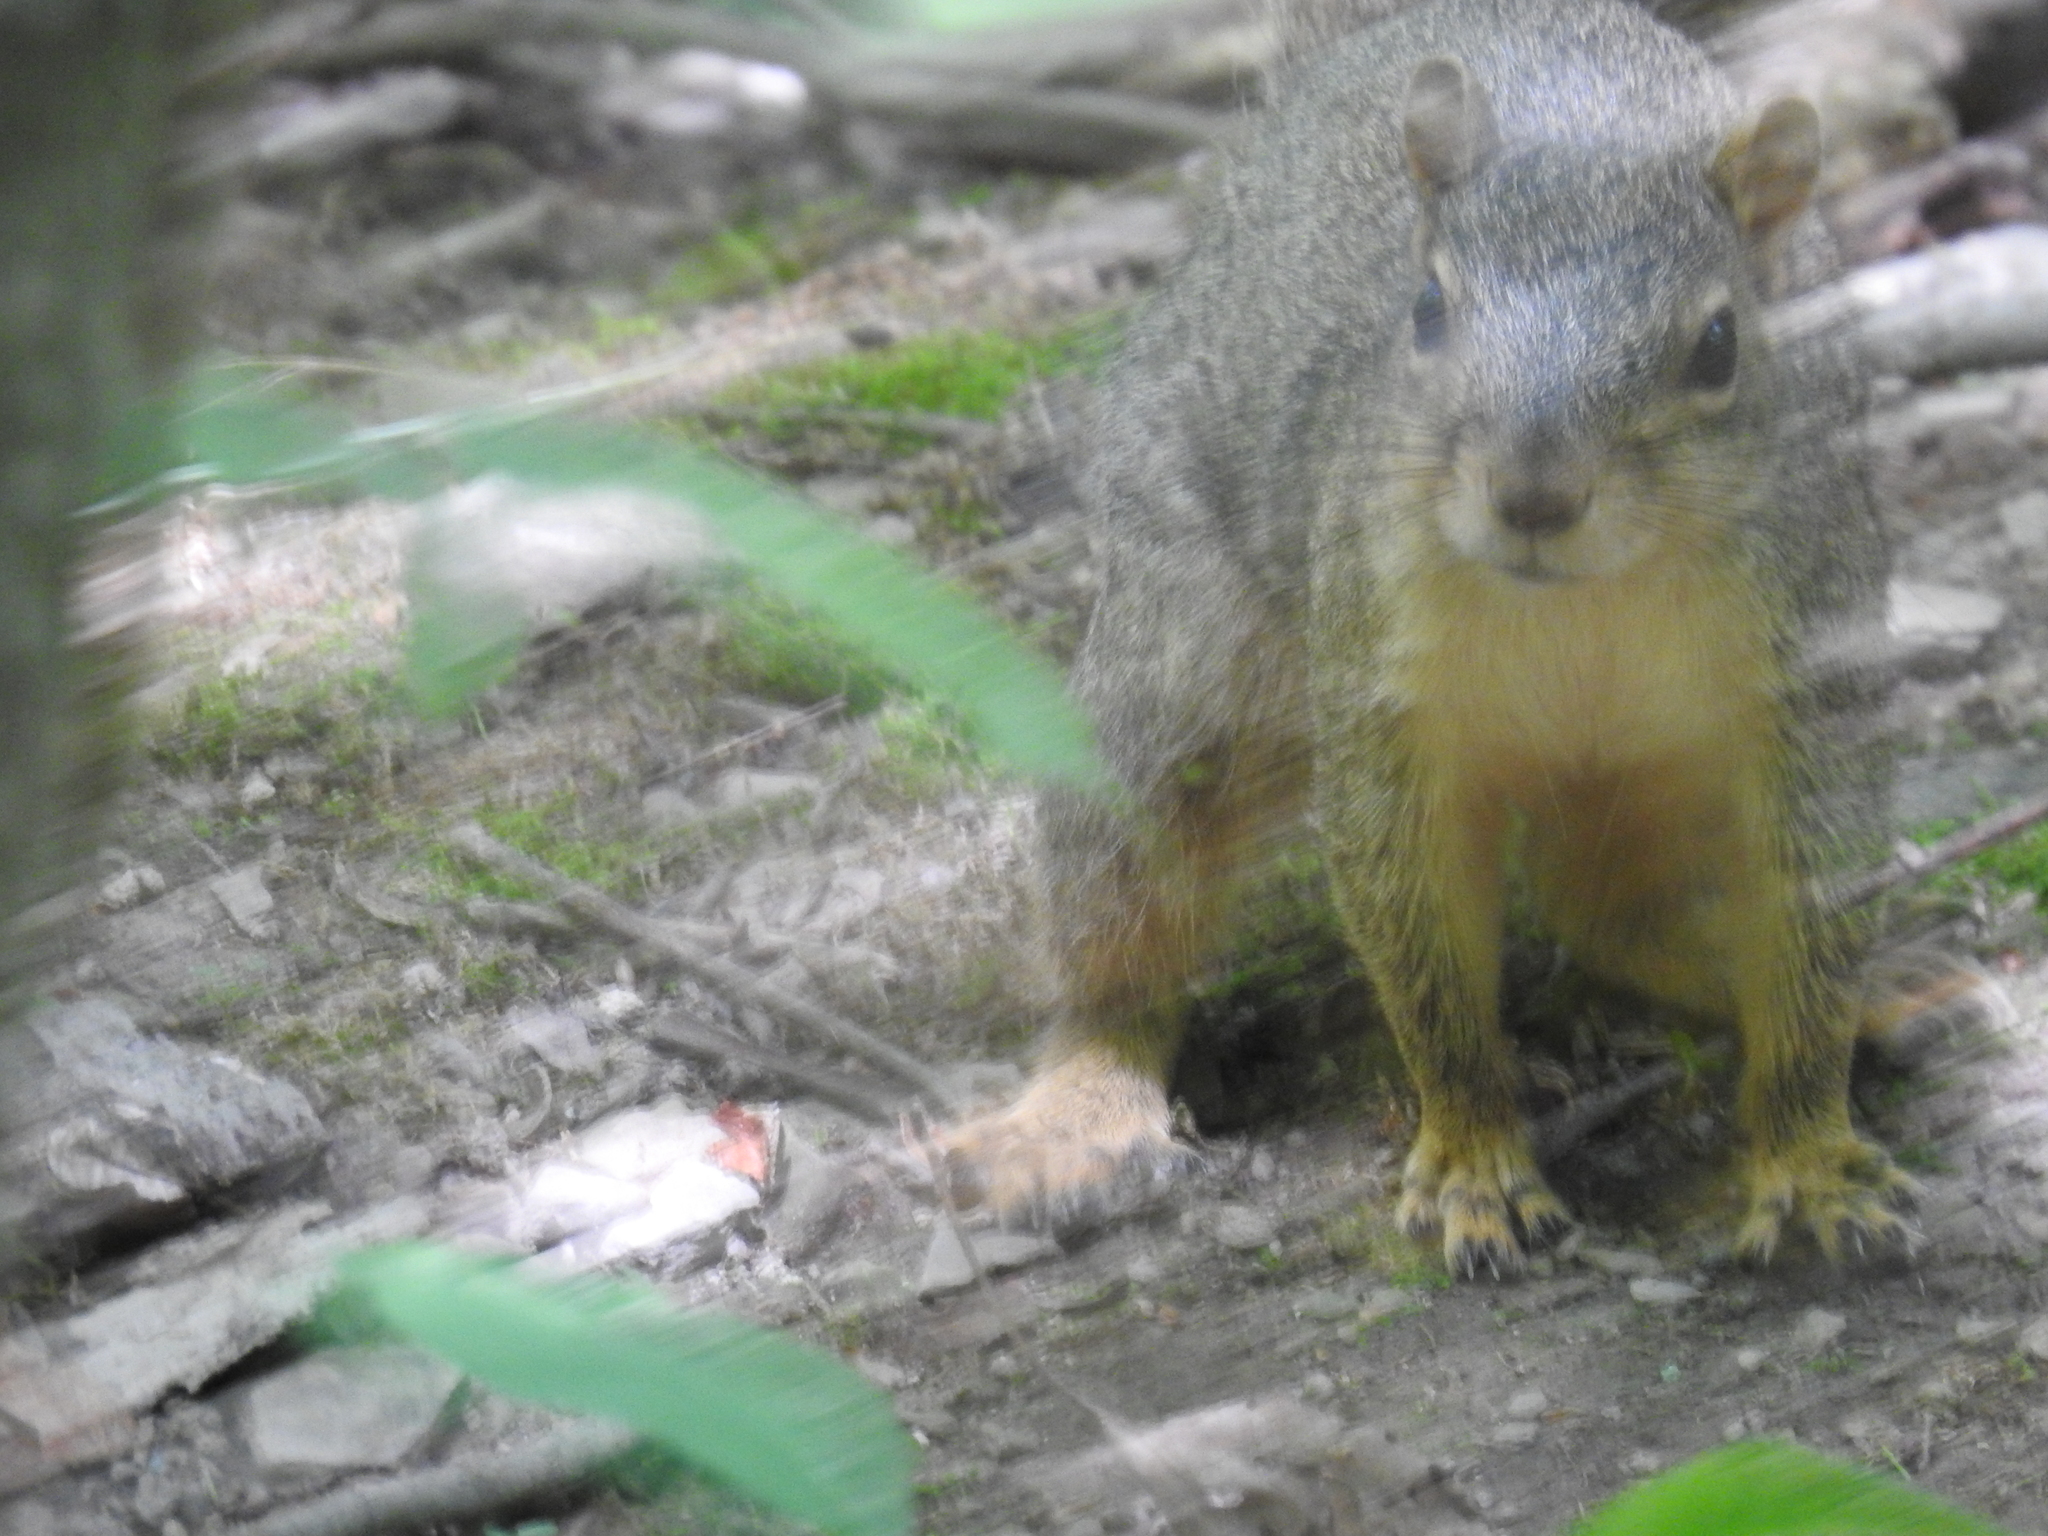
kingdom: Animalia
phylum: Chordata
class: Mammalia
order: Rodentia
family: Sciuridae
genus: Sciurus
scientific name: Sciurus carolinensis
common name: Eastern gray squirrel
